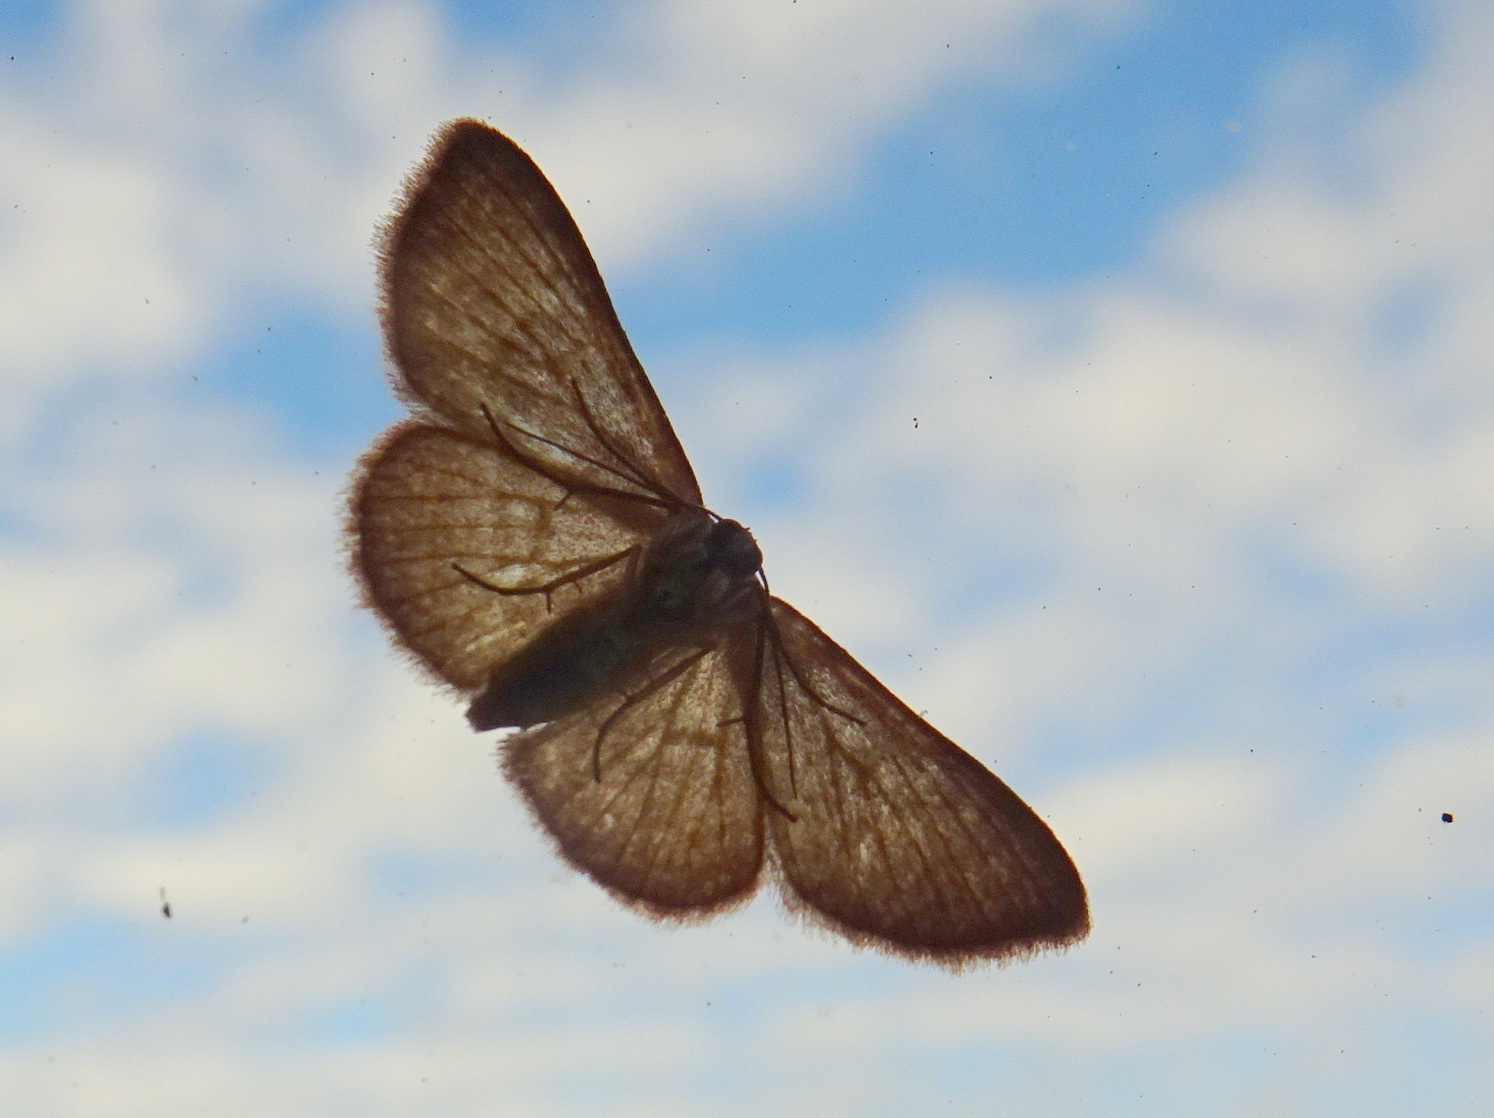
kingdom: Animalia
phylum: Arthropoda
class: Insecta
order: Lepidoptera
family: Crambidae
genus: Herpetogramma
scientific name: Herpetogramma bipunctalis
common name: Southern beet webworm
